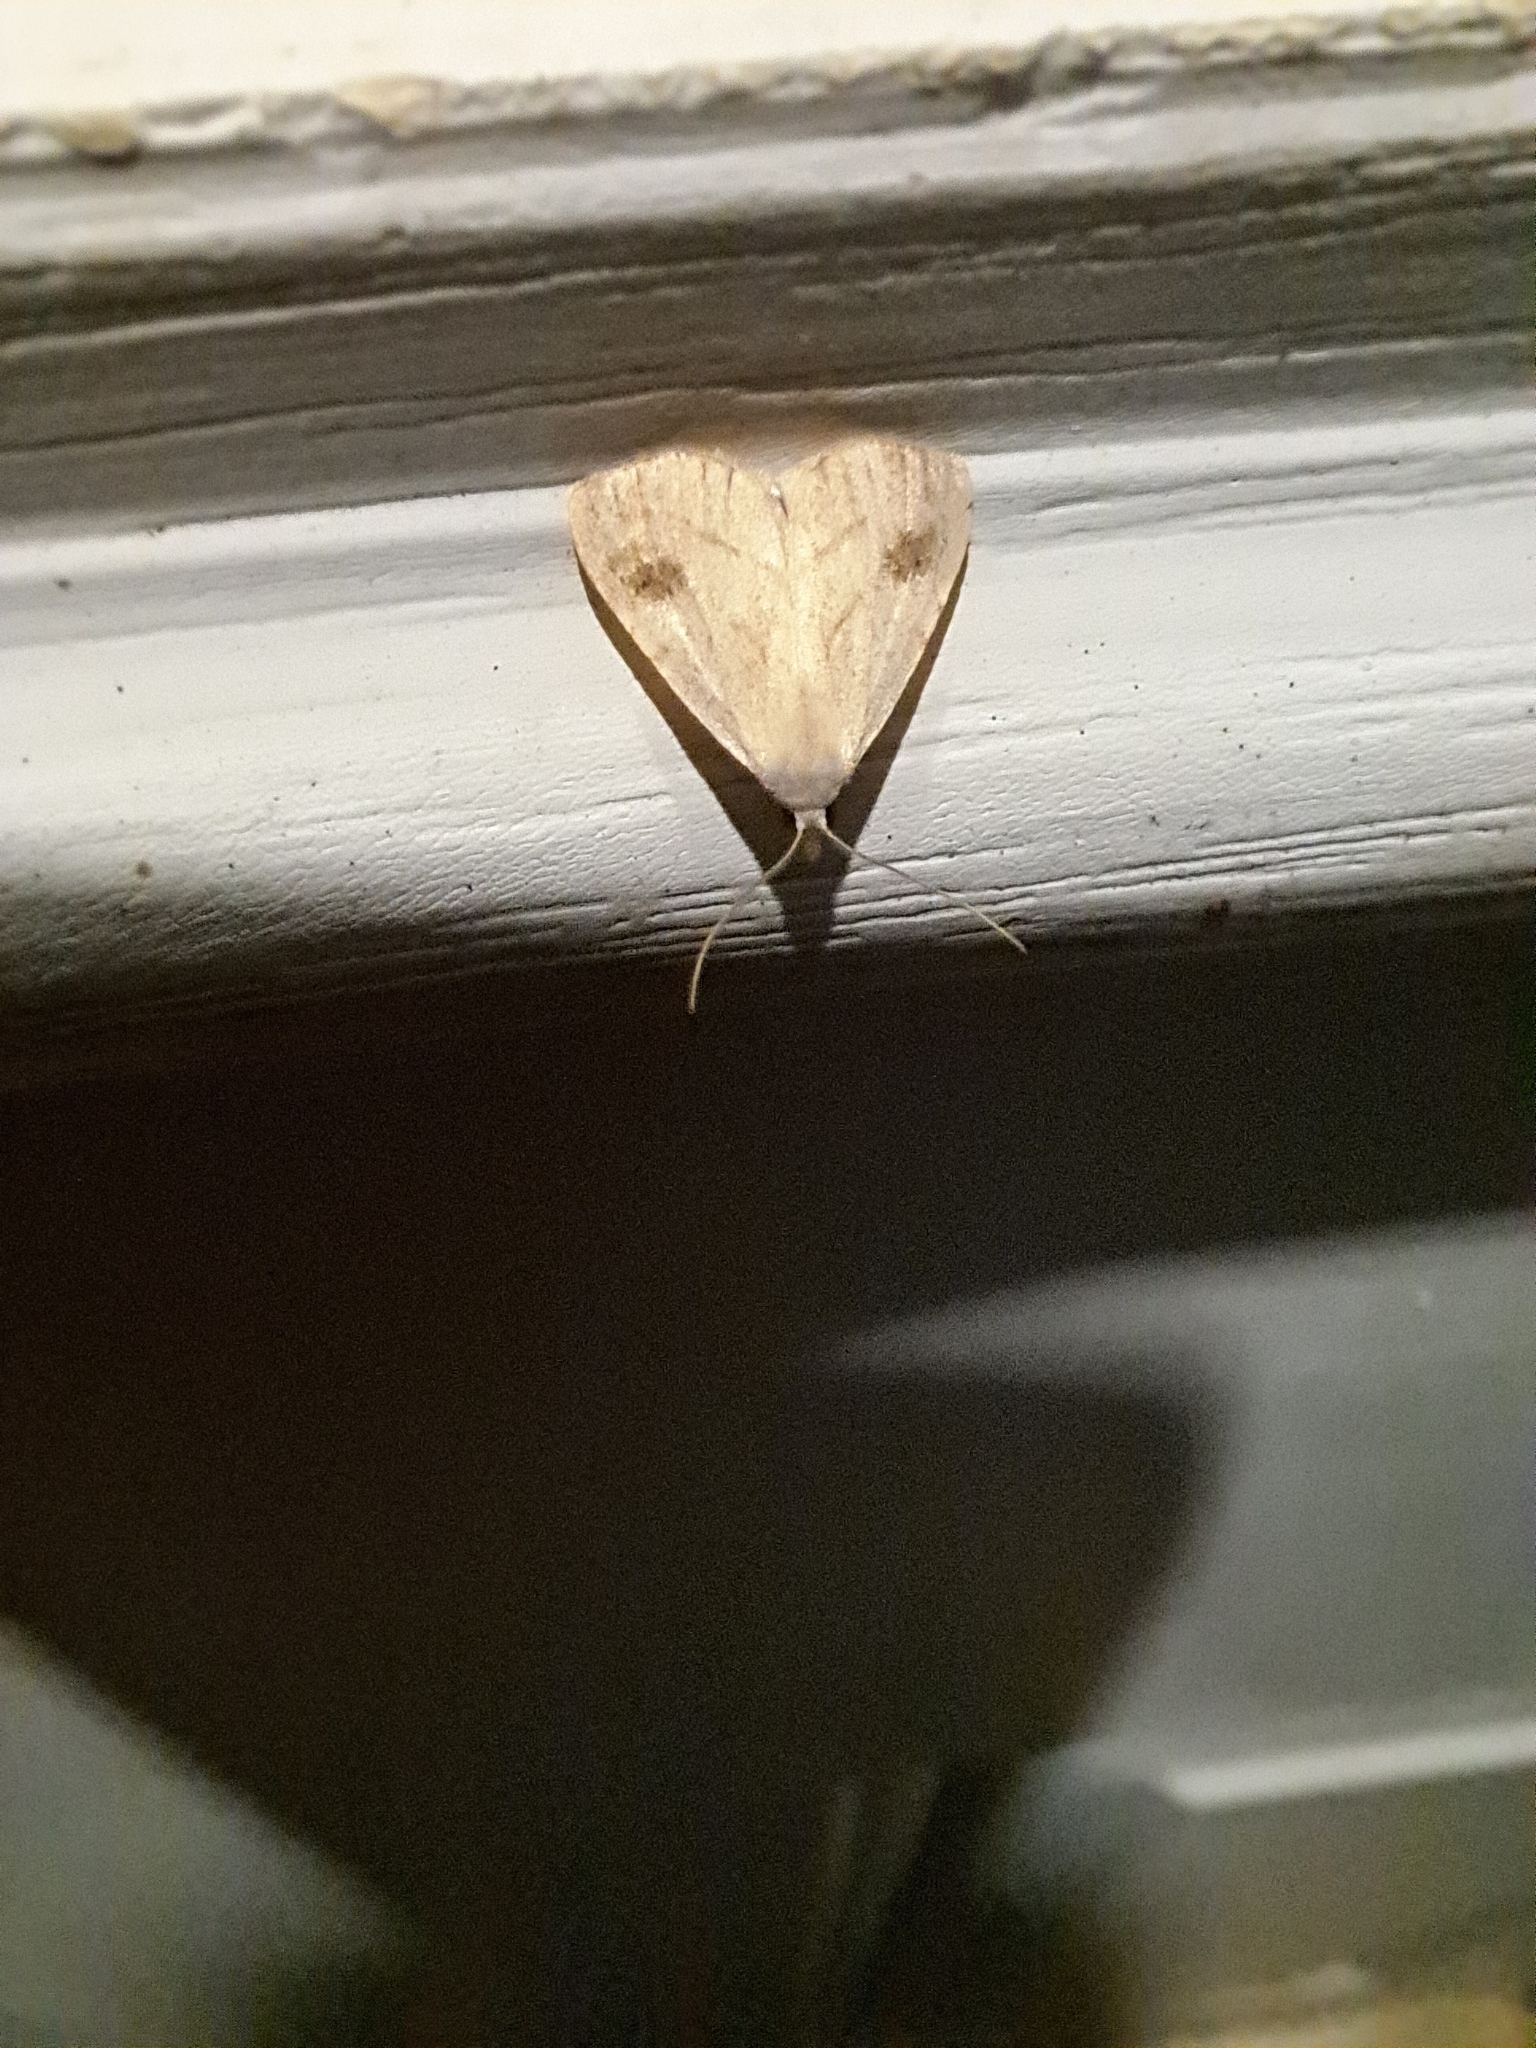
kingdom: Animalia
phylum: Arthropoda
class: Insecta
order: Lepidoptera
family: Erebidae
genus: Rivula
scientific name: Rivula propinqualis
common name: Spotted grass moth
